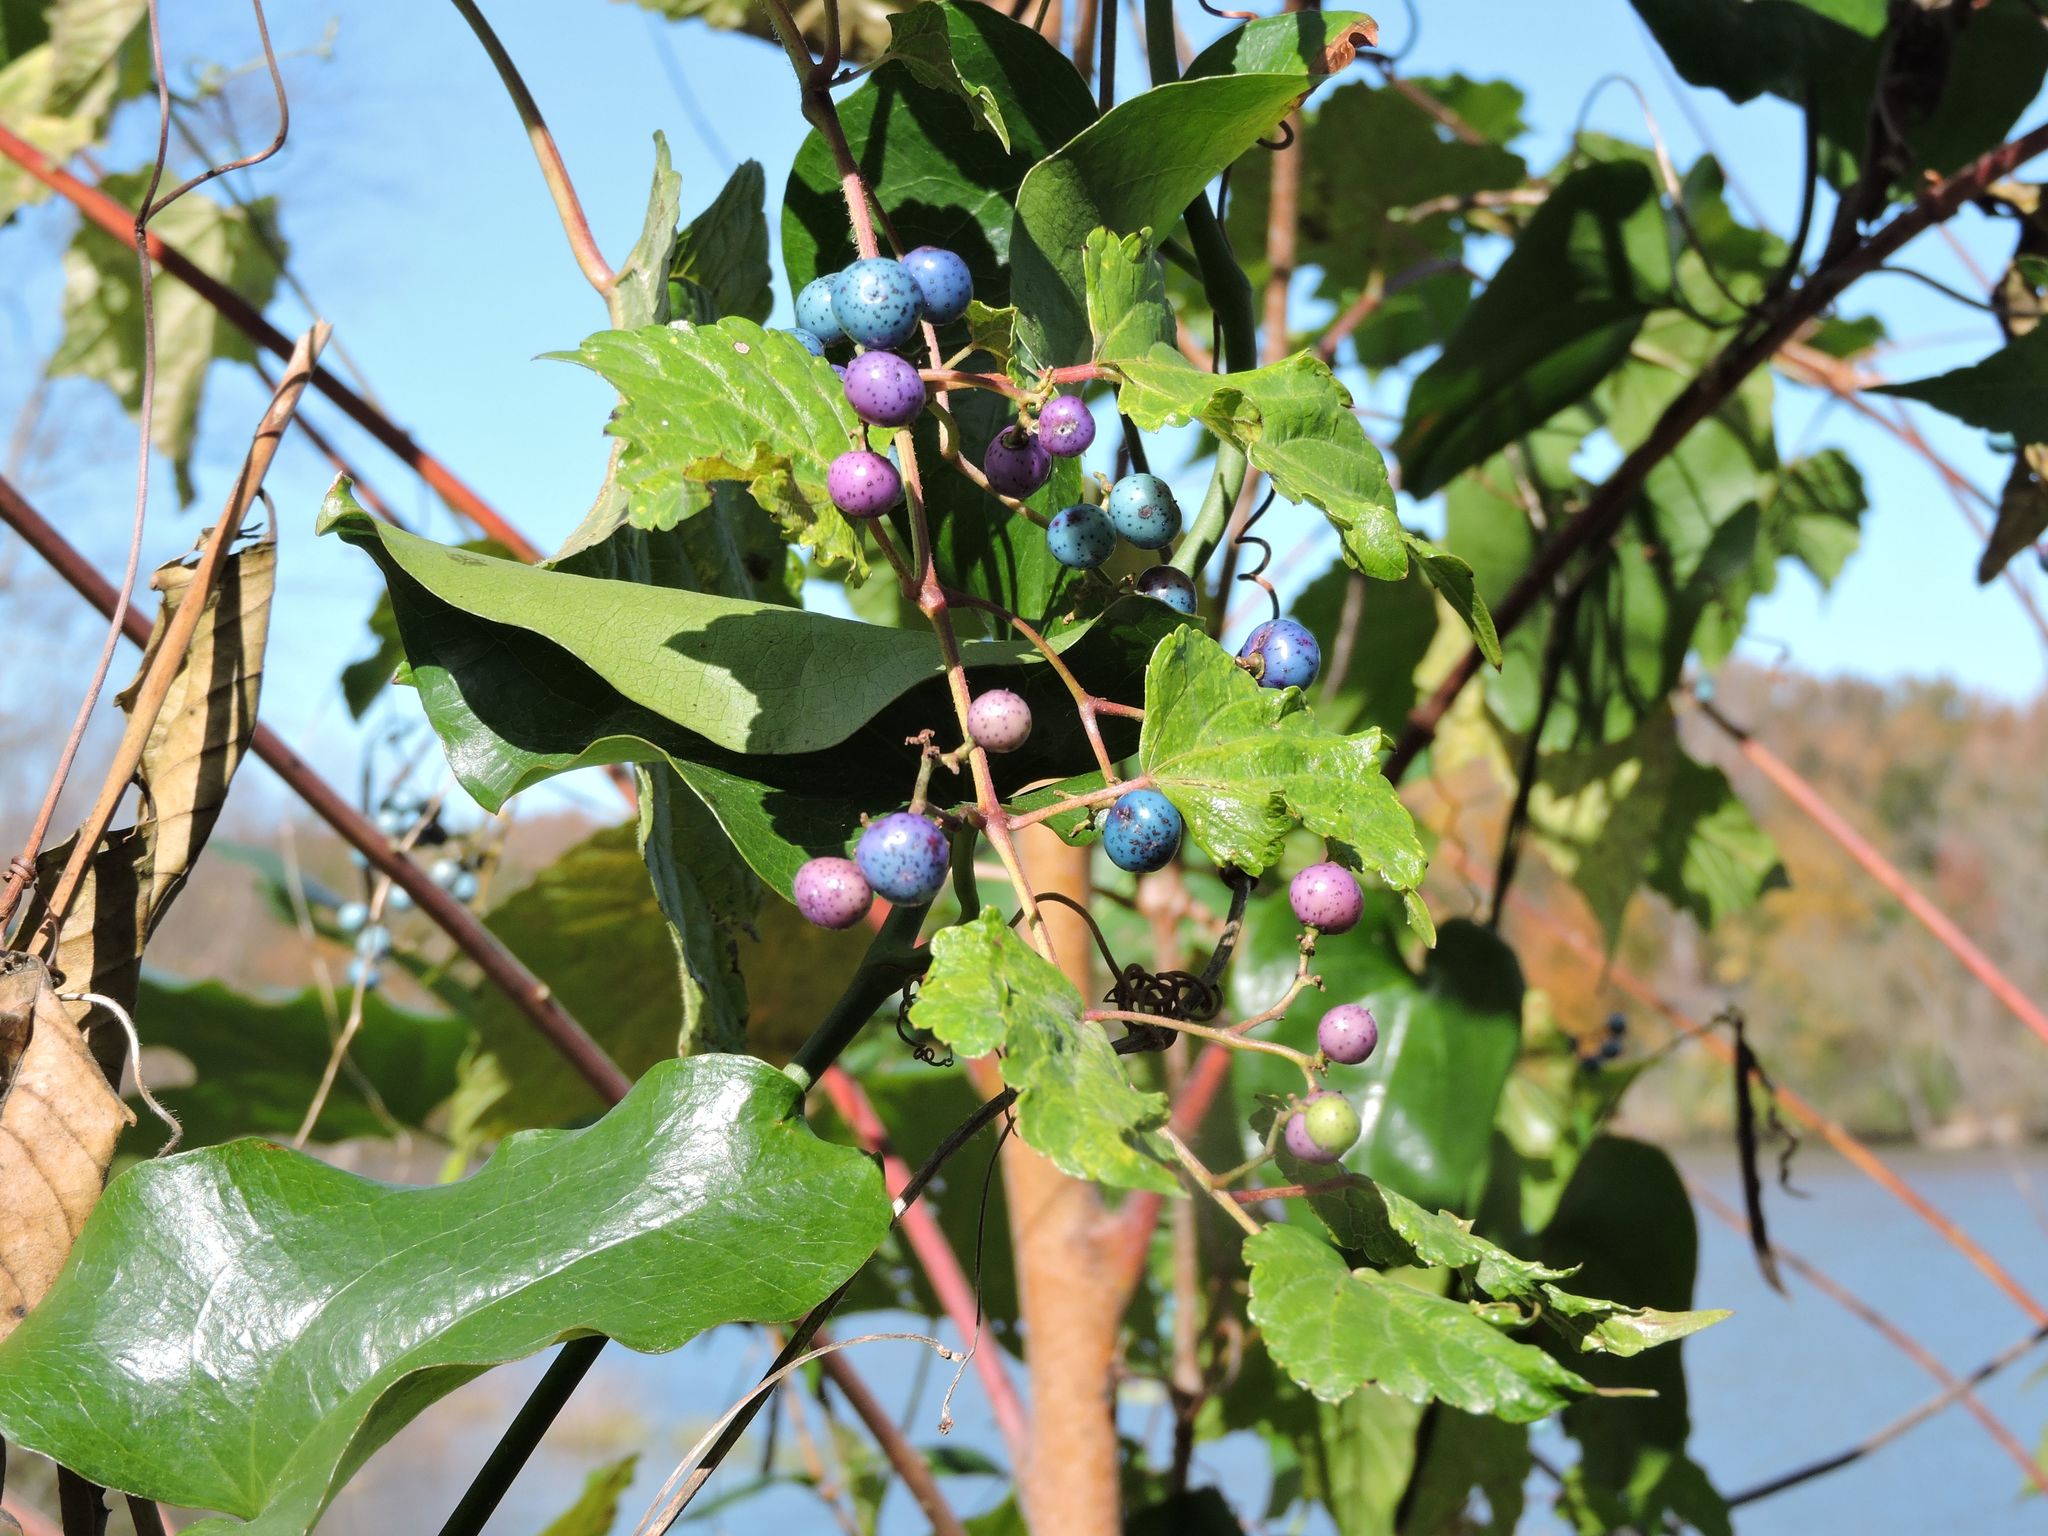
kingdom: Plantae
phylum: Tracheophyta
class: Magnoliopsida
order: Vitales
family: Vitaceae
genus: Ampelopsis
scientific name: Ampelopsis glandulosa
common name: Amur peppervine
